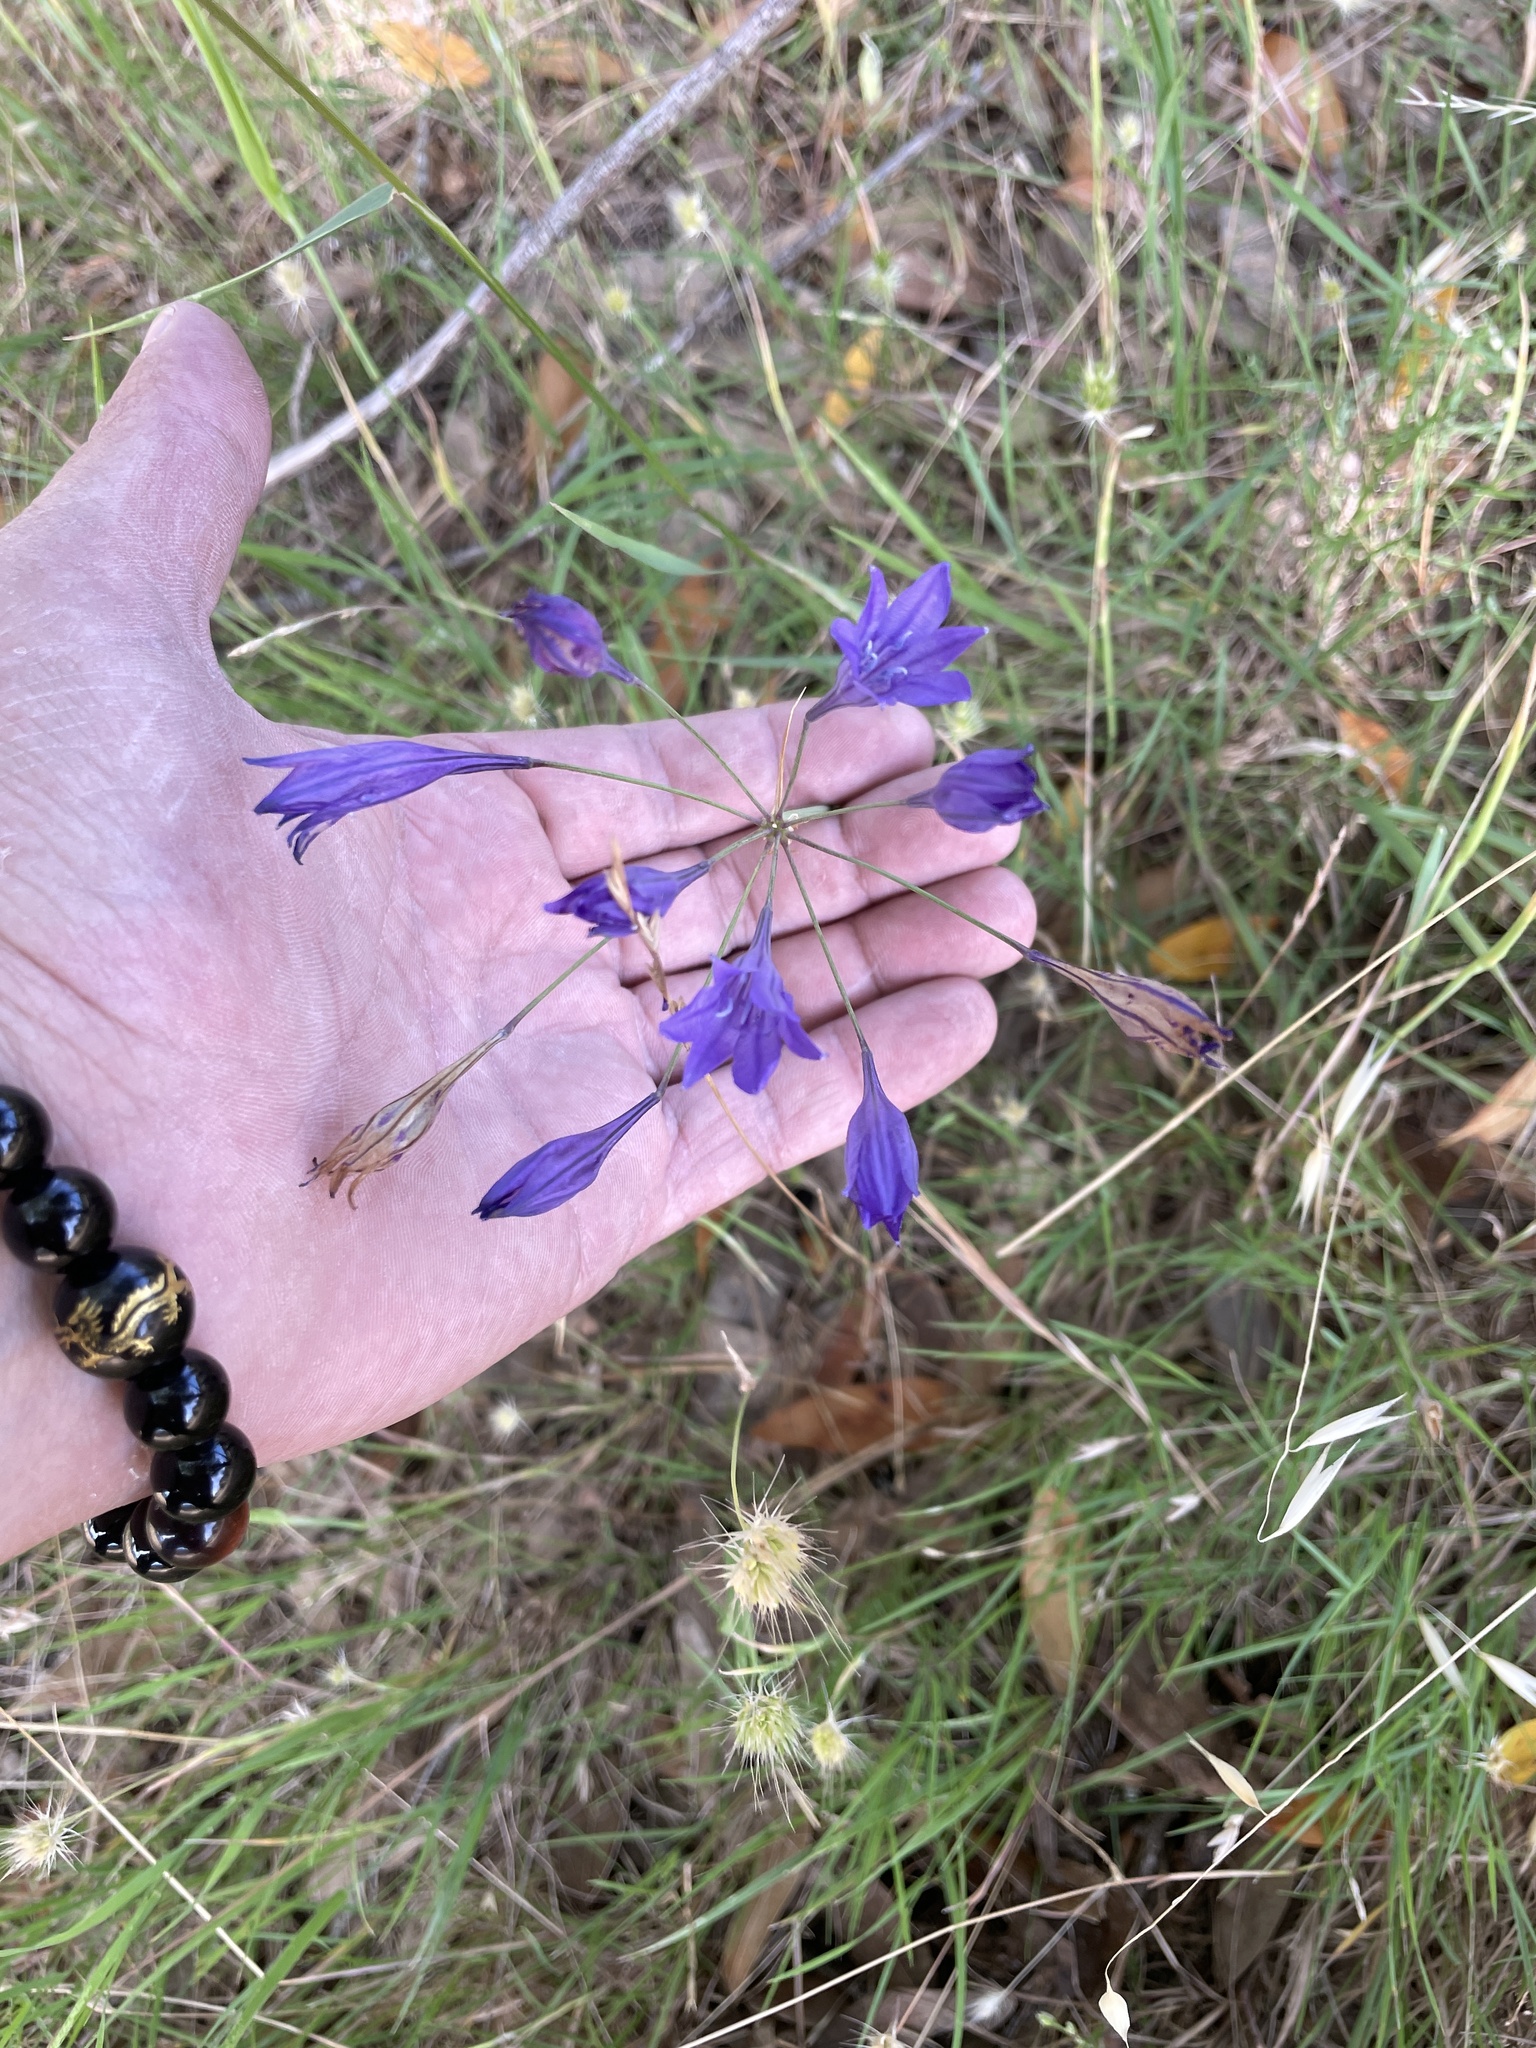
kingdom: Plantae
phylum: Tracheophyta
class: Liliopsida
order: Asparagales
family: Asparagaceae
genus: Triteleia
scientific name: Triteleia laxa
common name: Triplet-lily
